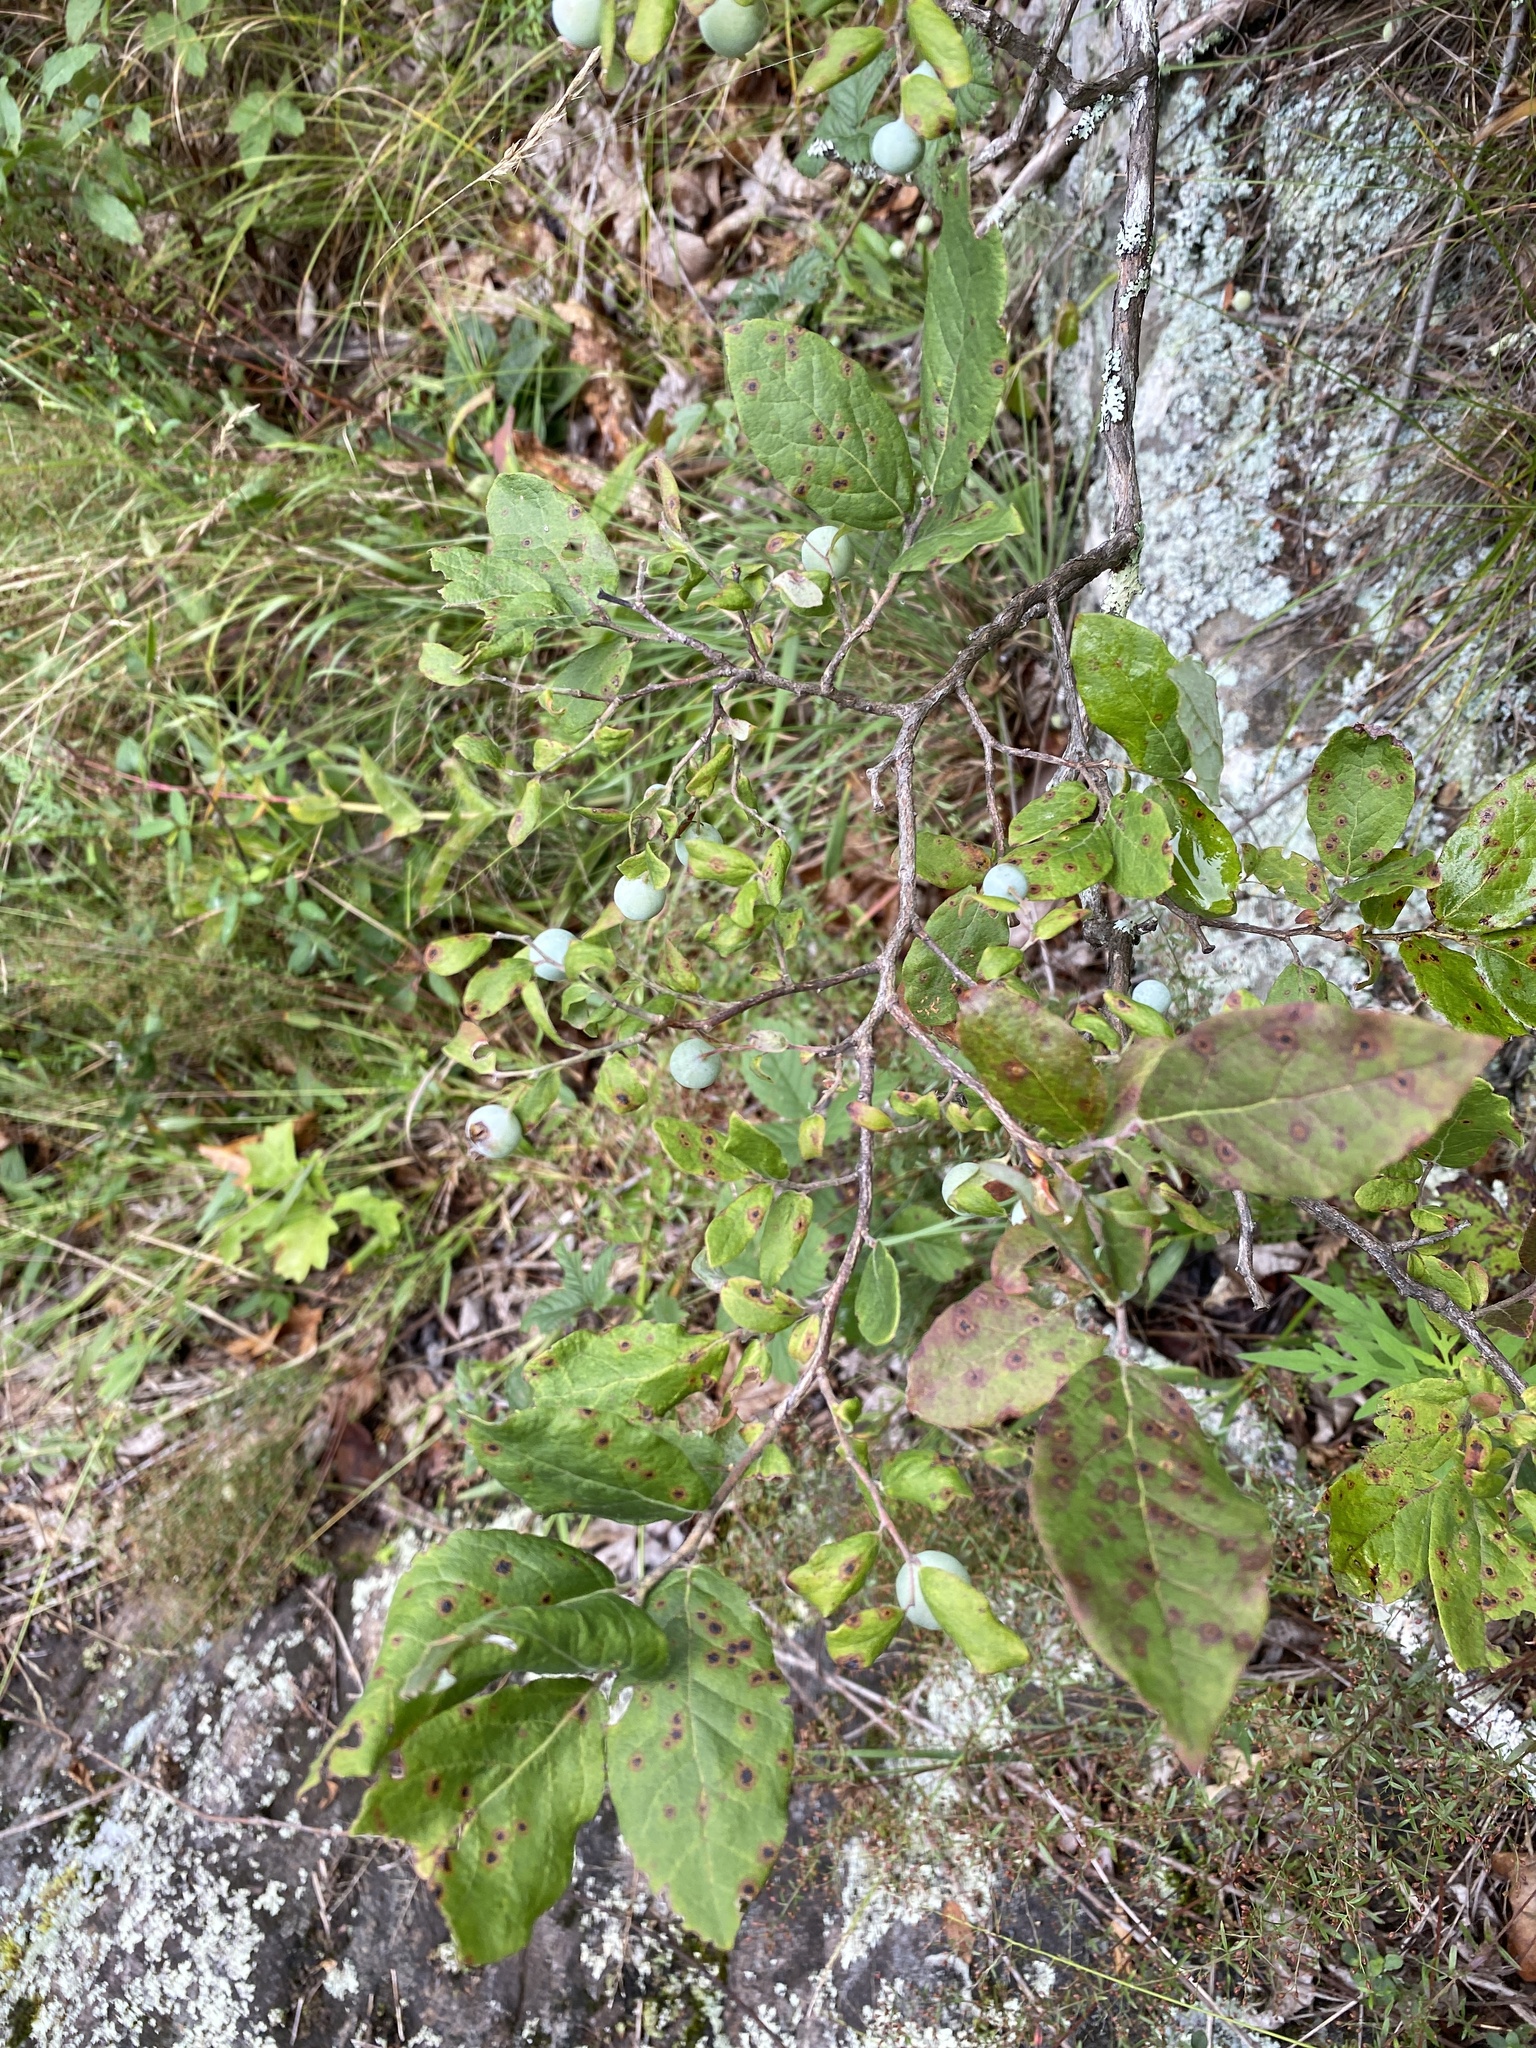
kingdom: Plantae
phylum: Tracheophyta
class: Magnoliopsida
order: Ericales
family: Ericaceae
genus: Vaccinium
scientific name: Vaccinium stamineum
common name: Deerberry
